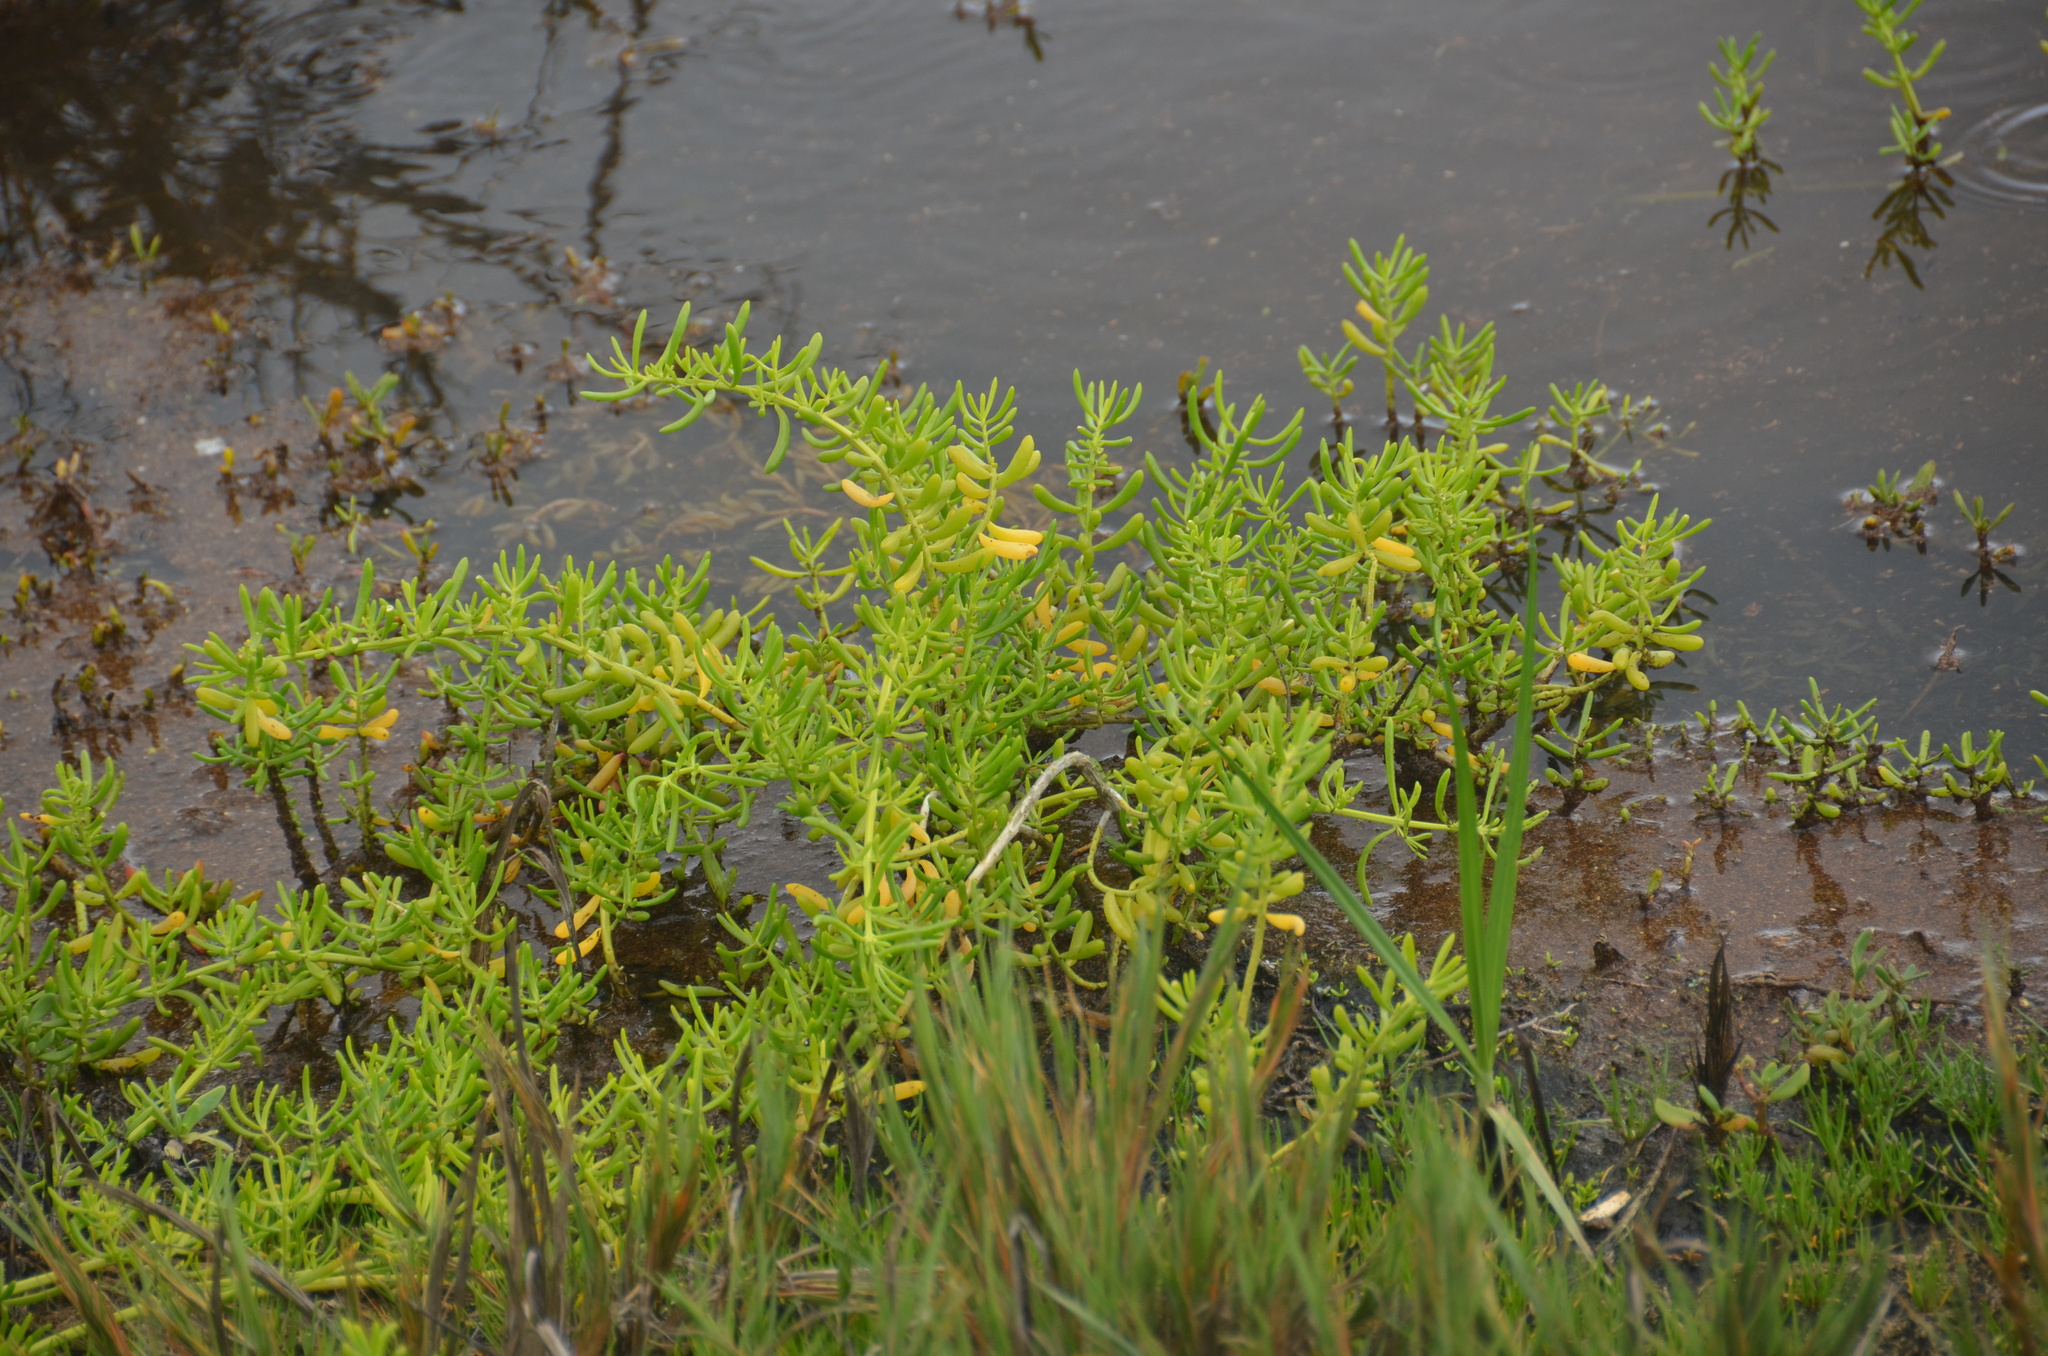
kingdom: Plantae
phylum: Tracheophyta
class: Magnoliopsida
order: Brassicales
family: Bataceae
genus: Batis
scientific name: Batis maritima
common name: Turtleweed
